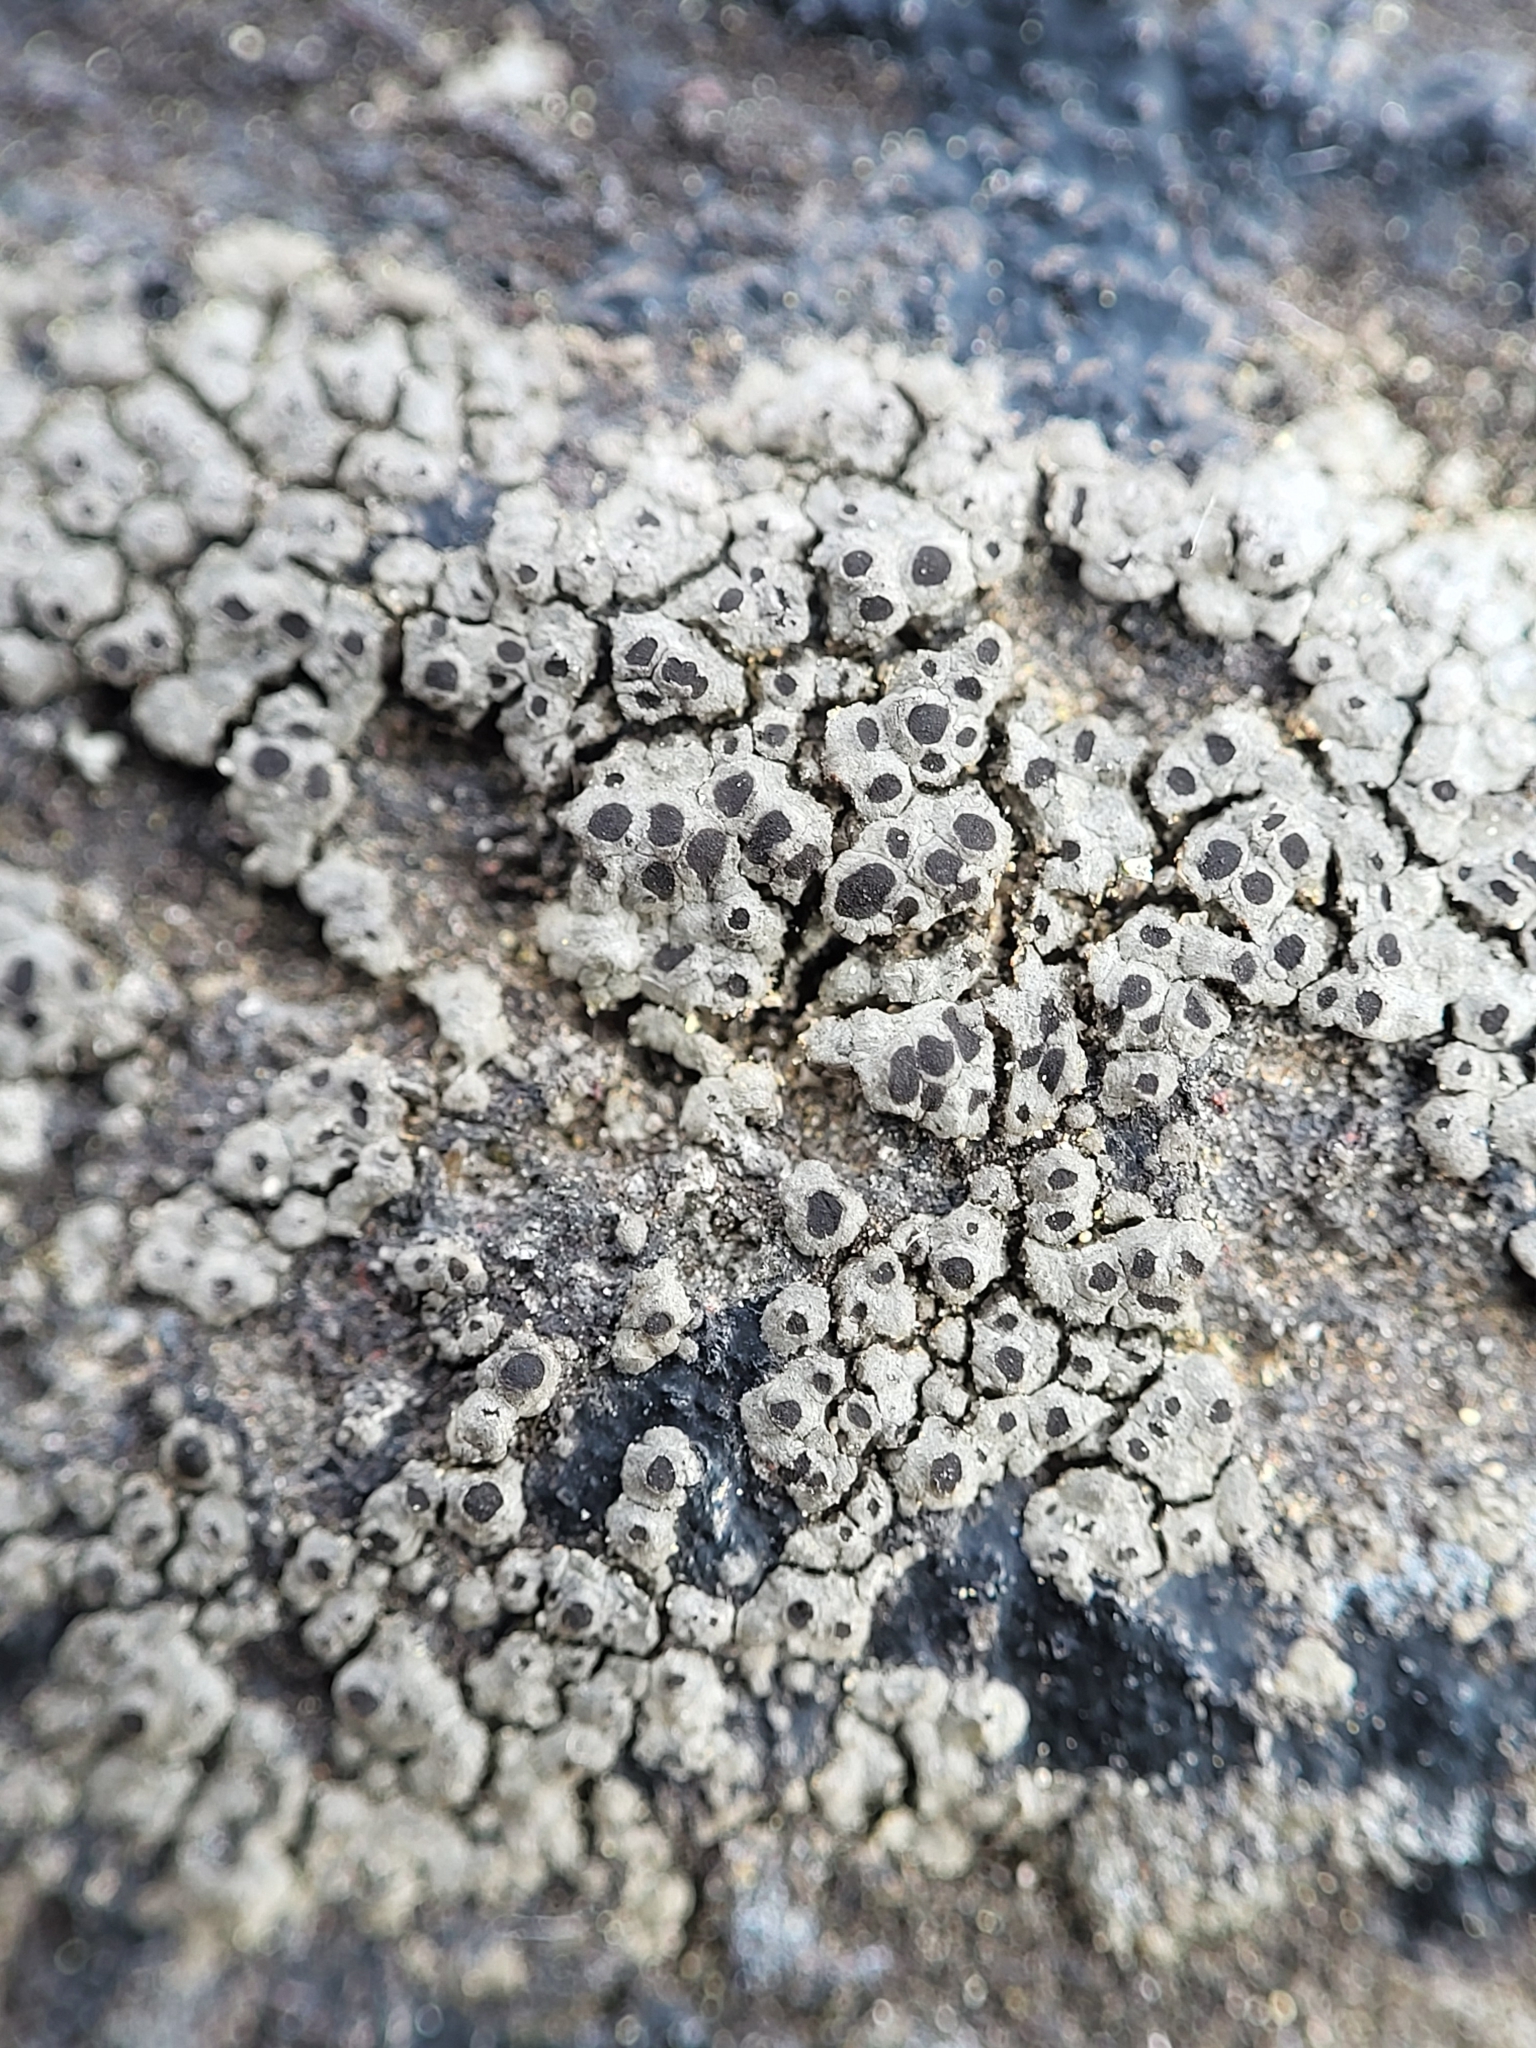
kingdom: Fungi
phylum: Ascomycota
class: Lecanoromycetes
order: Caliciales
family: Physciaceae
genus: Rinodina
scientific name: Rinodina cana
